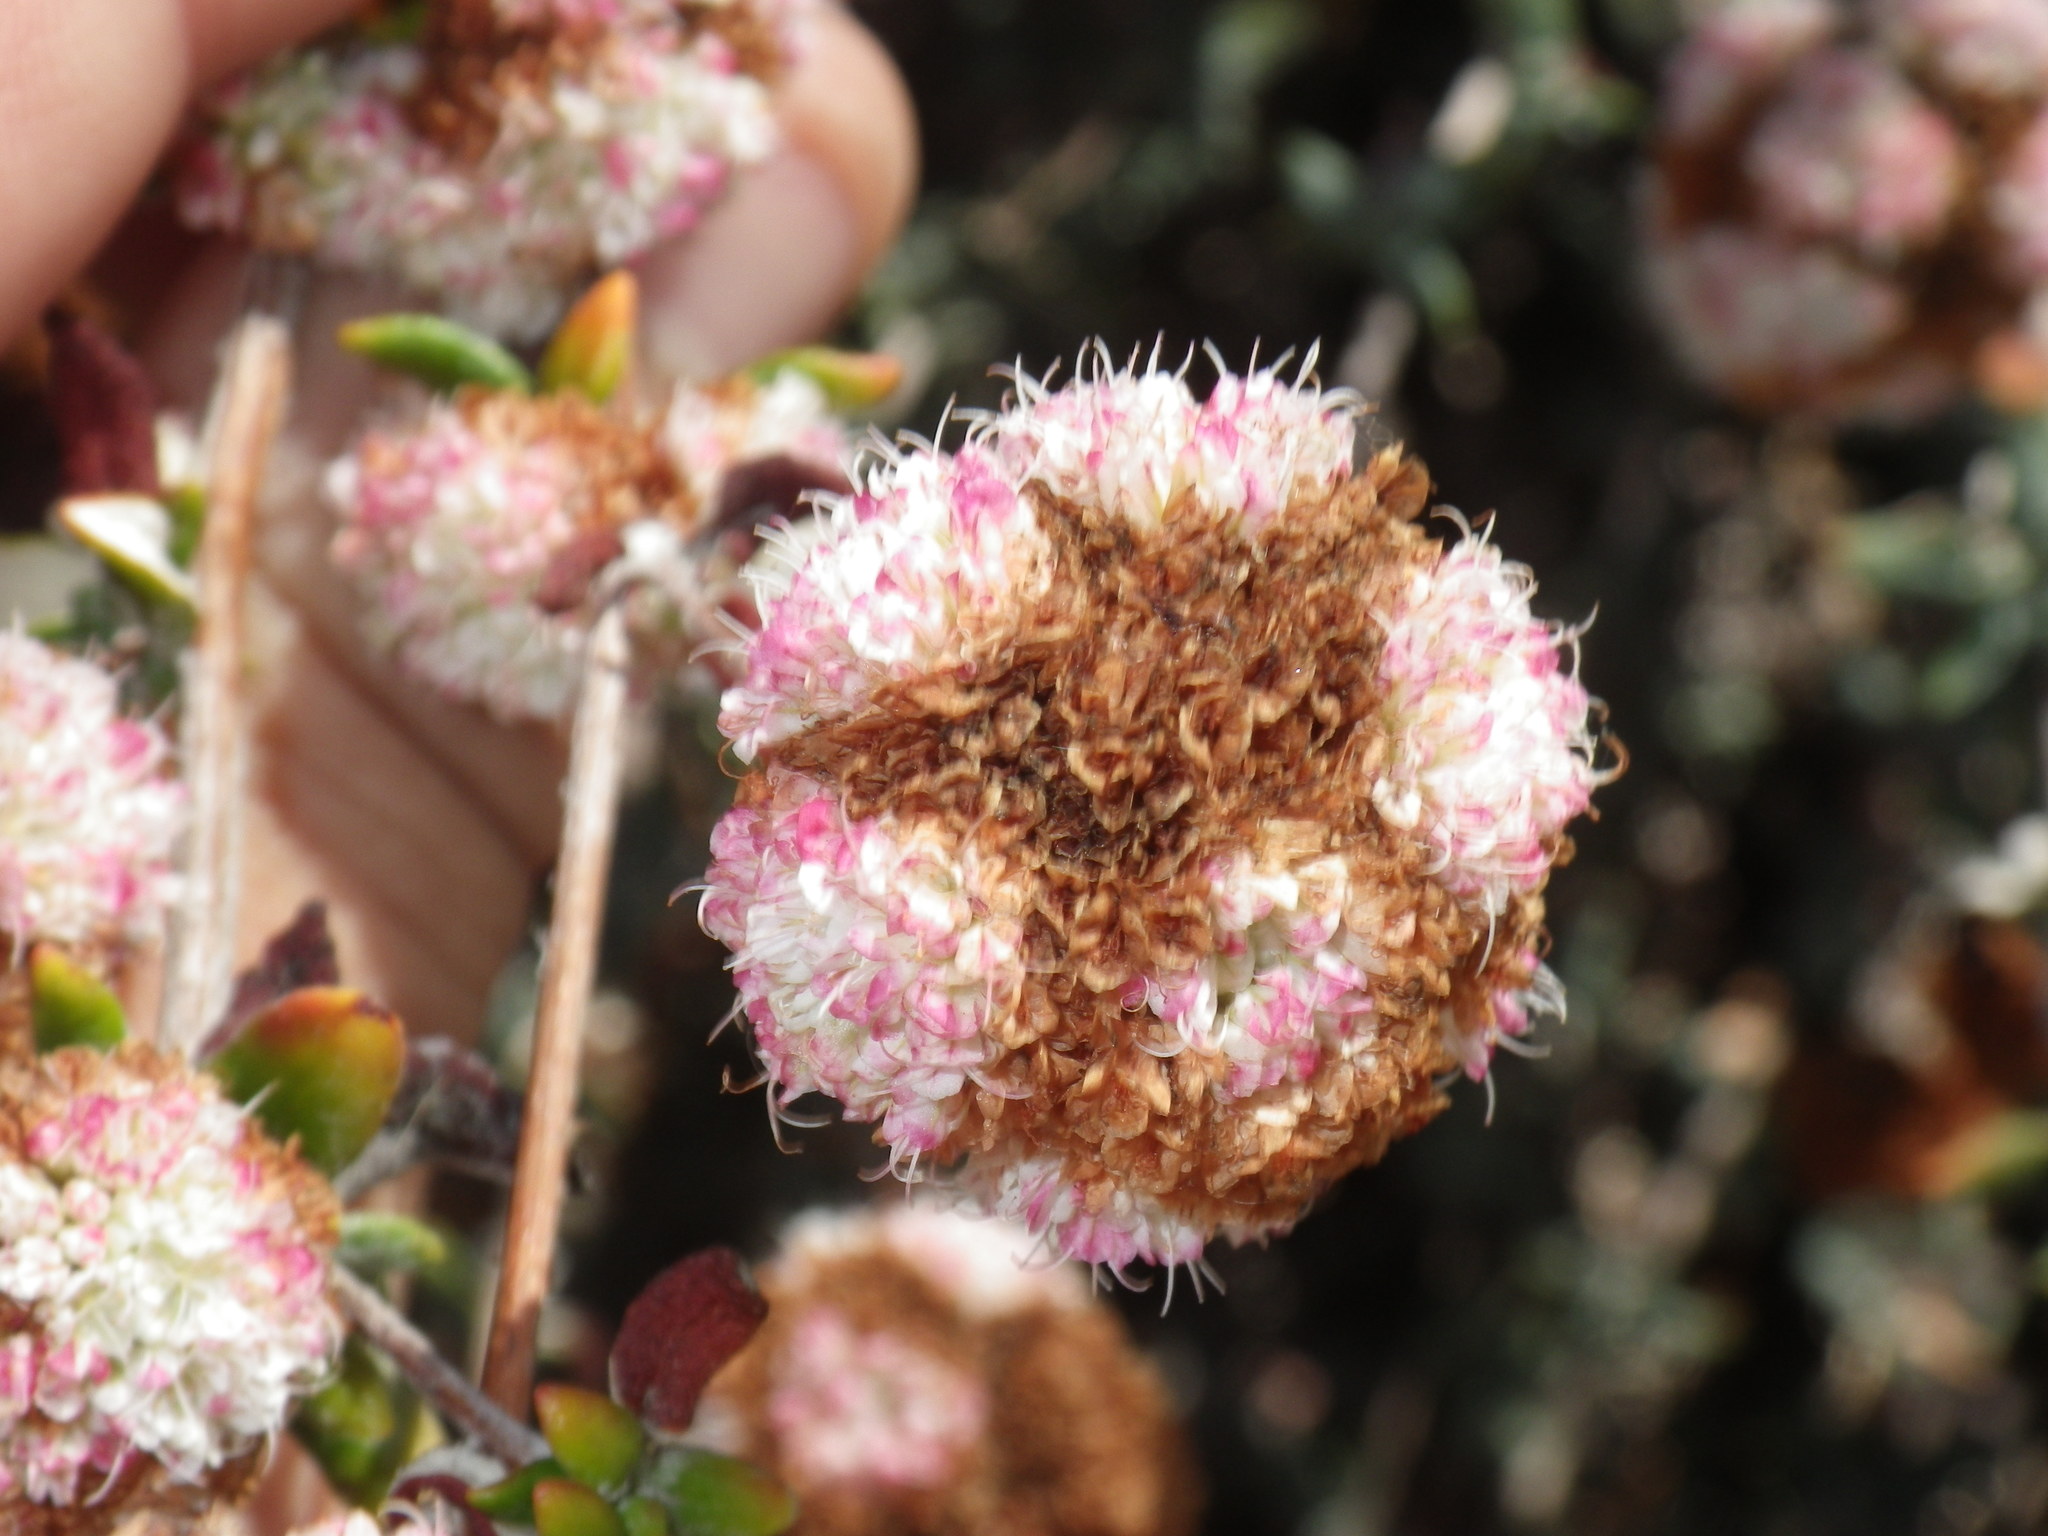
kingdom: Plantae
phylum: Tracheophyta
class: Magnoliopsida
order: Caryophyllales
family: Polygonaceae
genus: Eriogonum
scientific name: Eriogonum parvifolium
